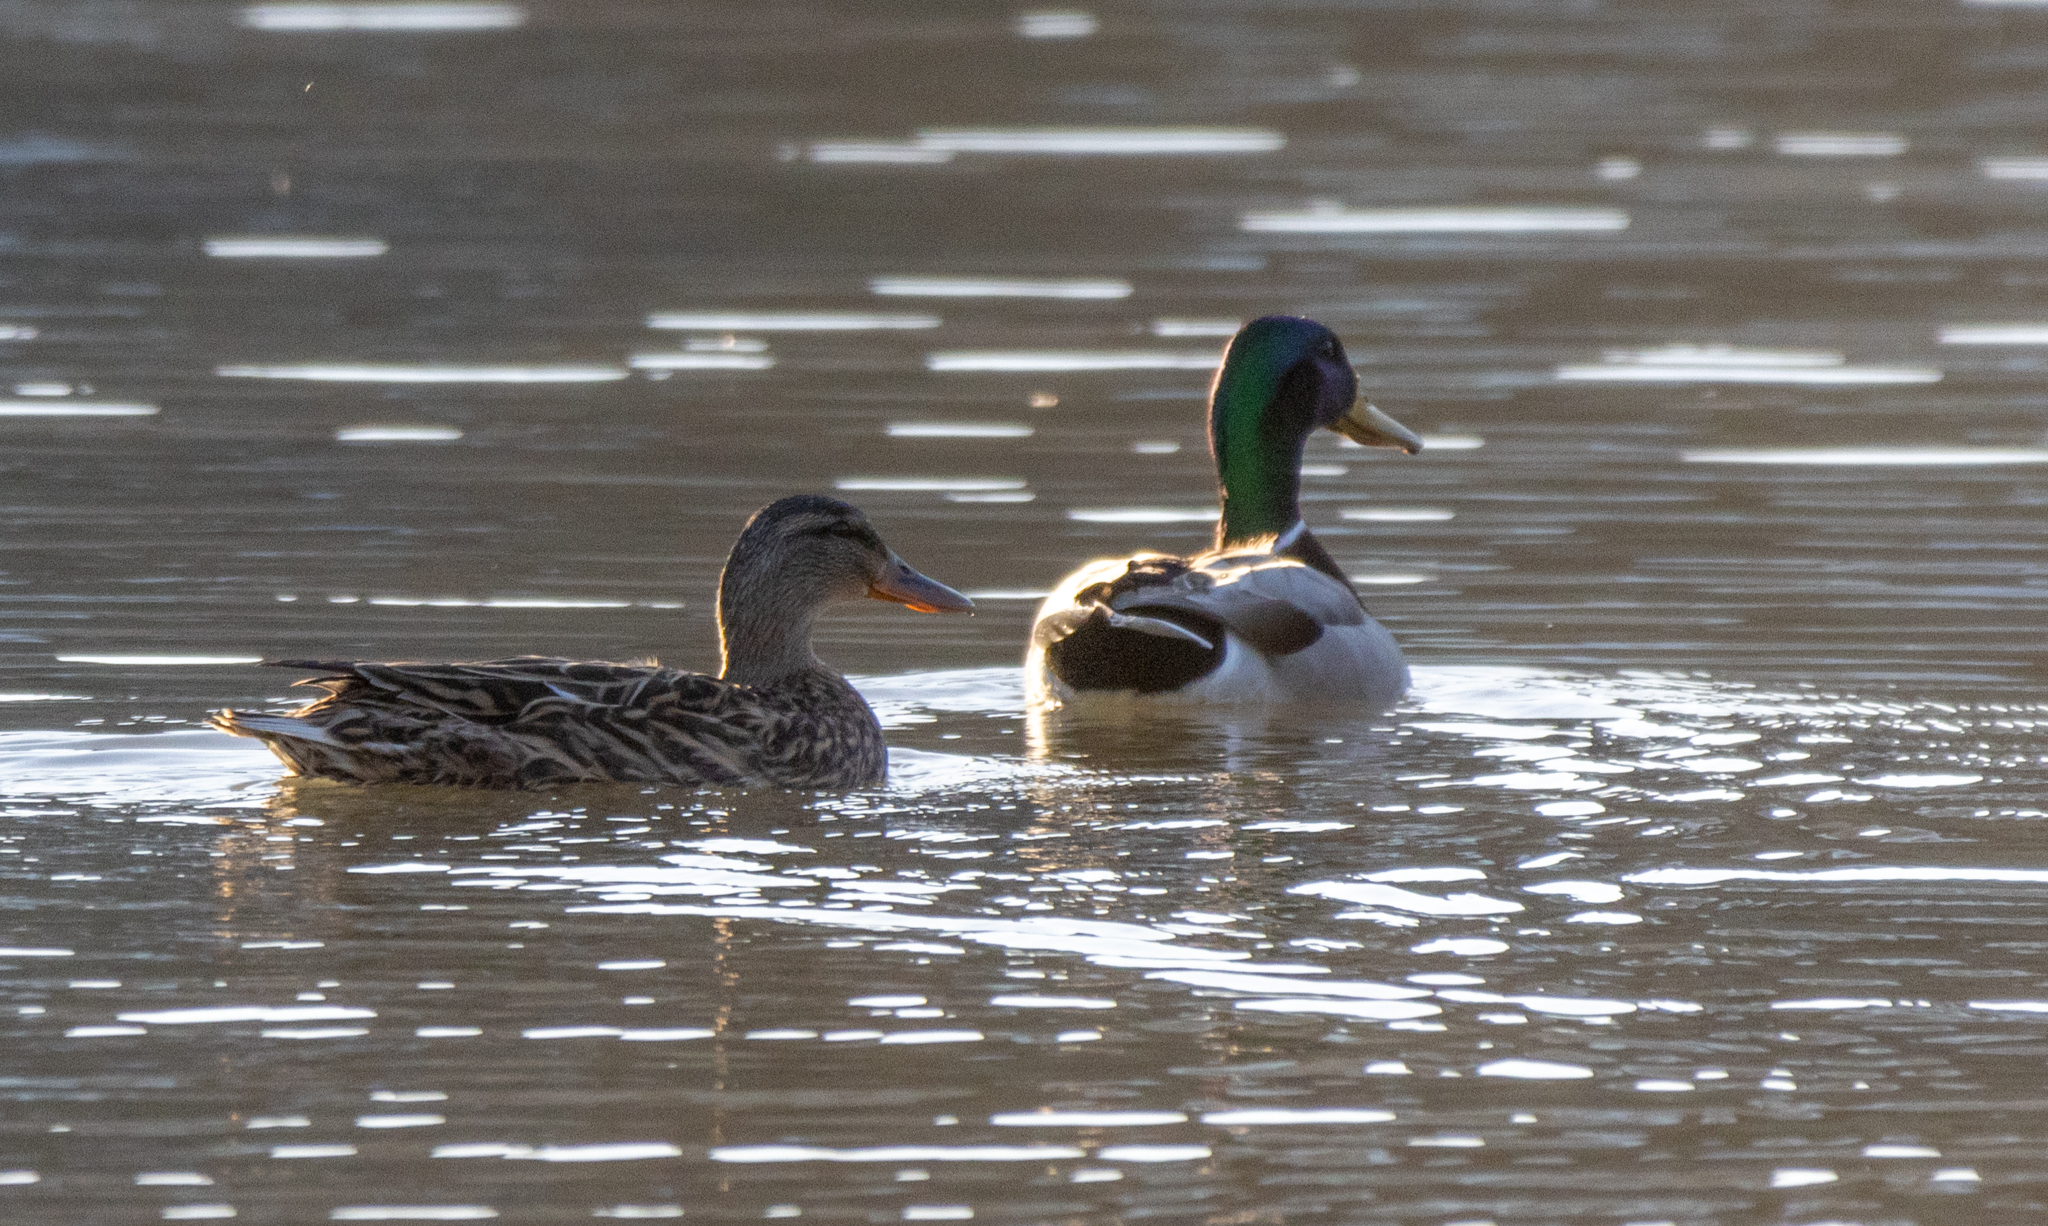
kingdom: Animalia
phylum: Chordata
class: Aves
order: Anseriformes
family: Anatidae
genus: Anas
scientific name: Anas platyrhynchos
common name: Mallard
